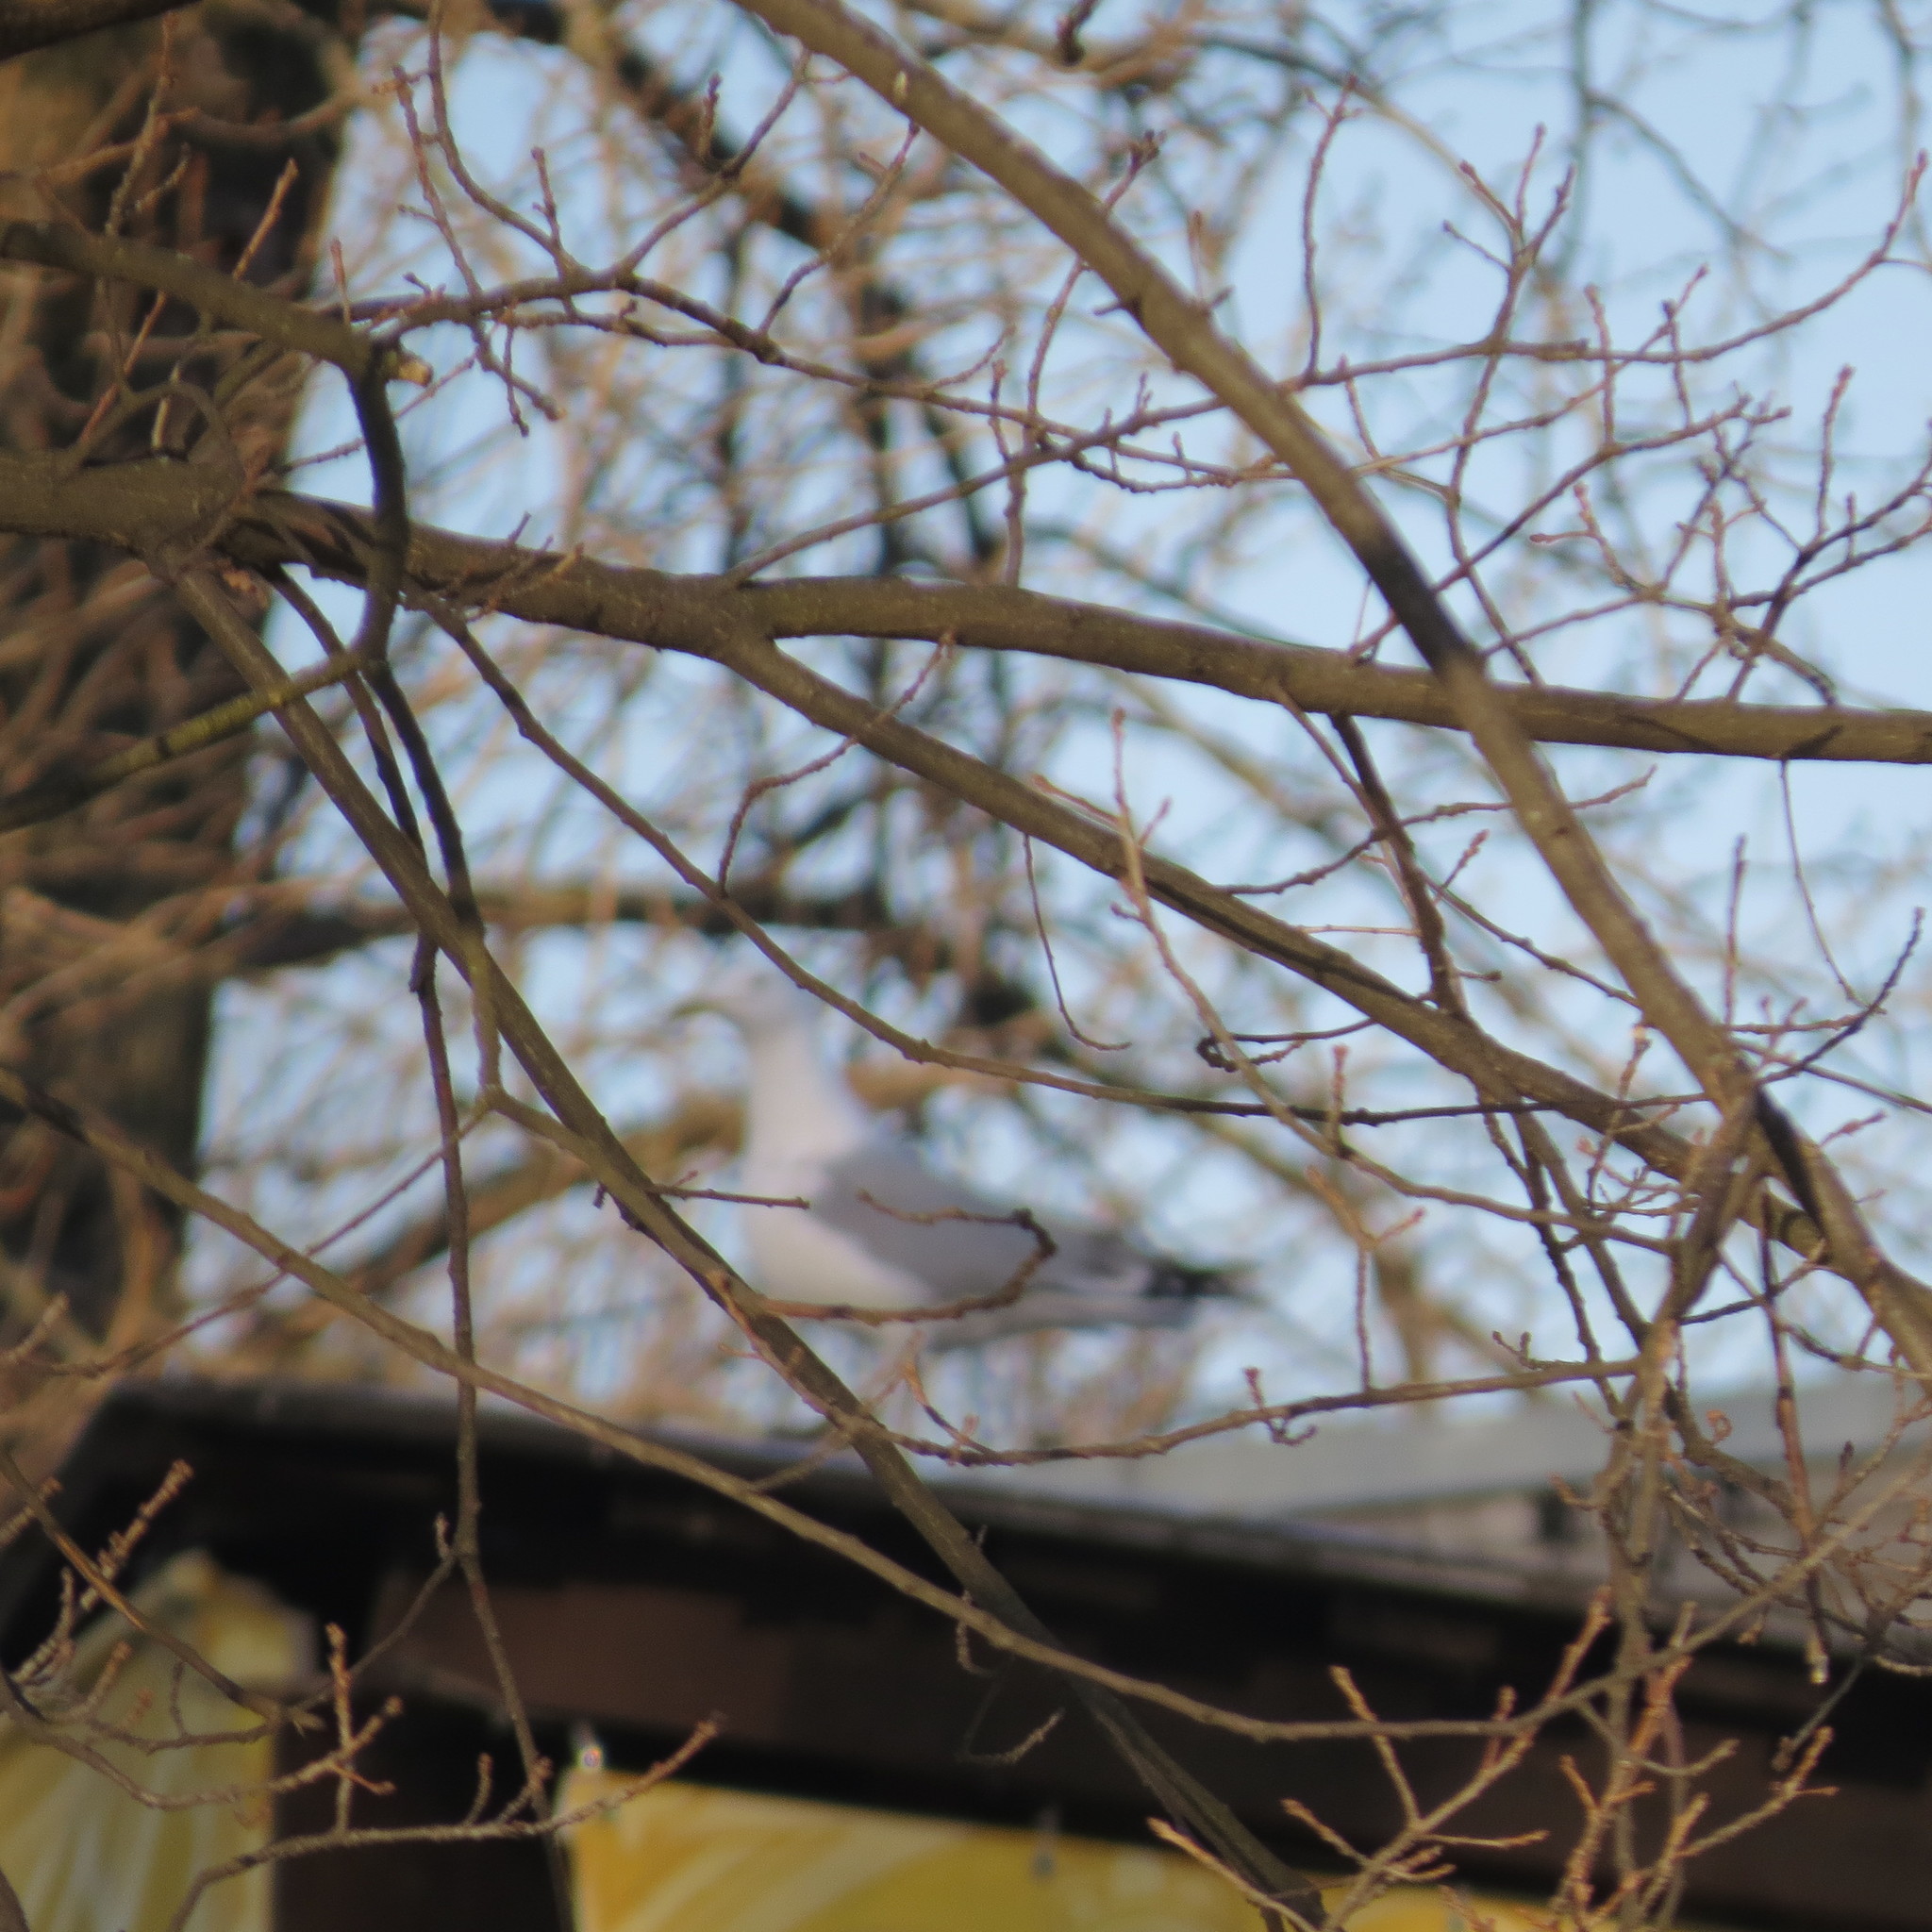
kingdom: Animalia
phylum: Chordata
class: Aves
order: Charadriiformes
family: Laridae
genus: Larus
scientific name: Larus argentatus
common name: Herring gull
